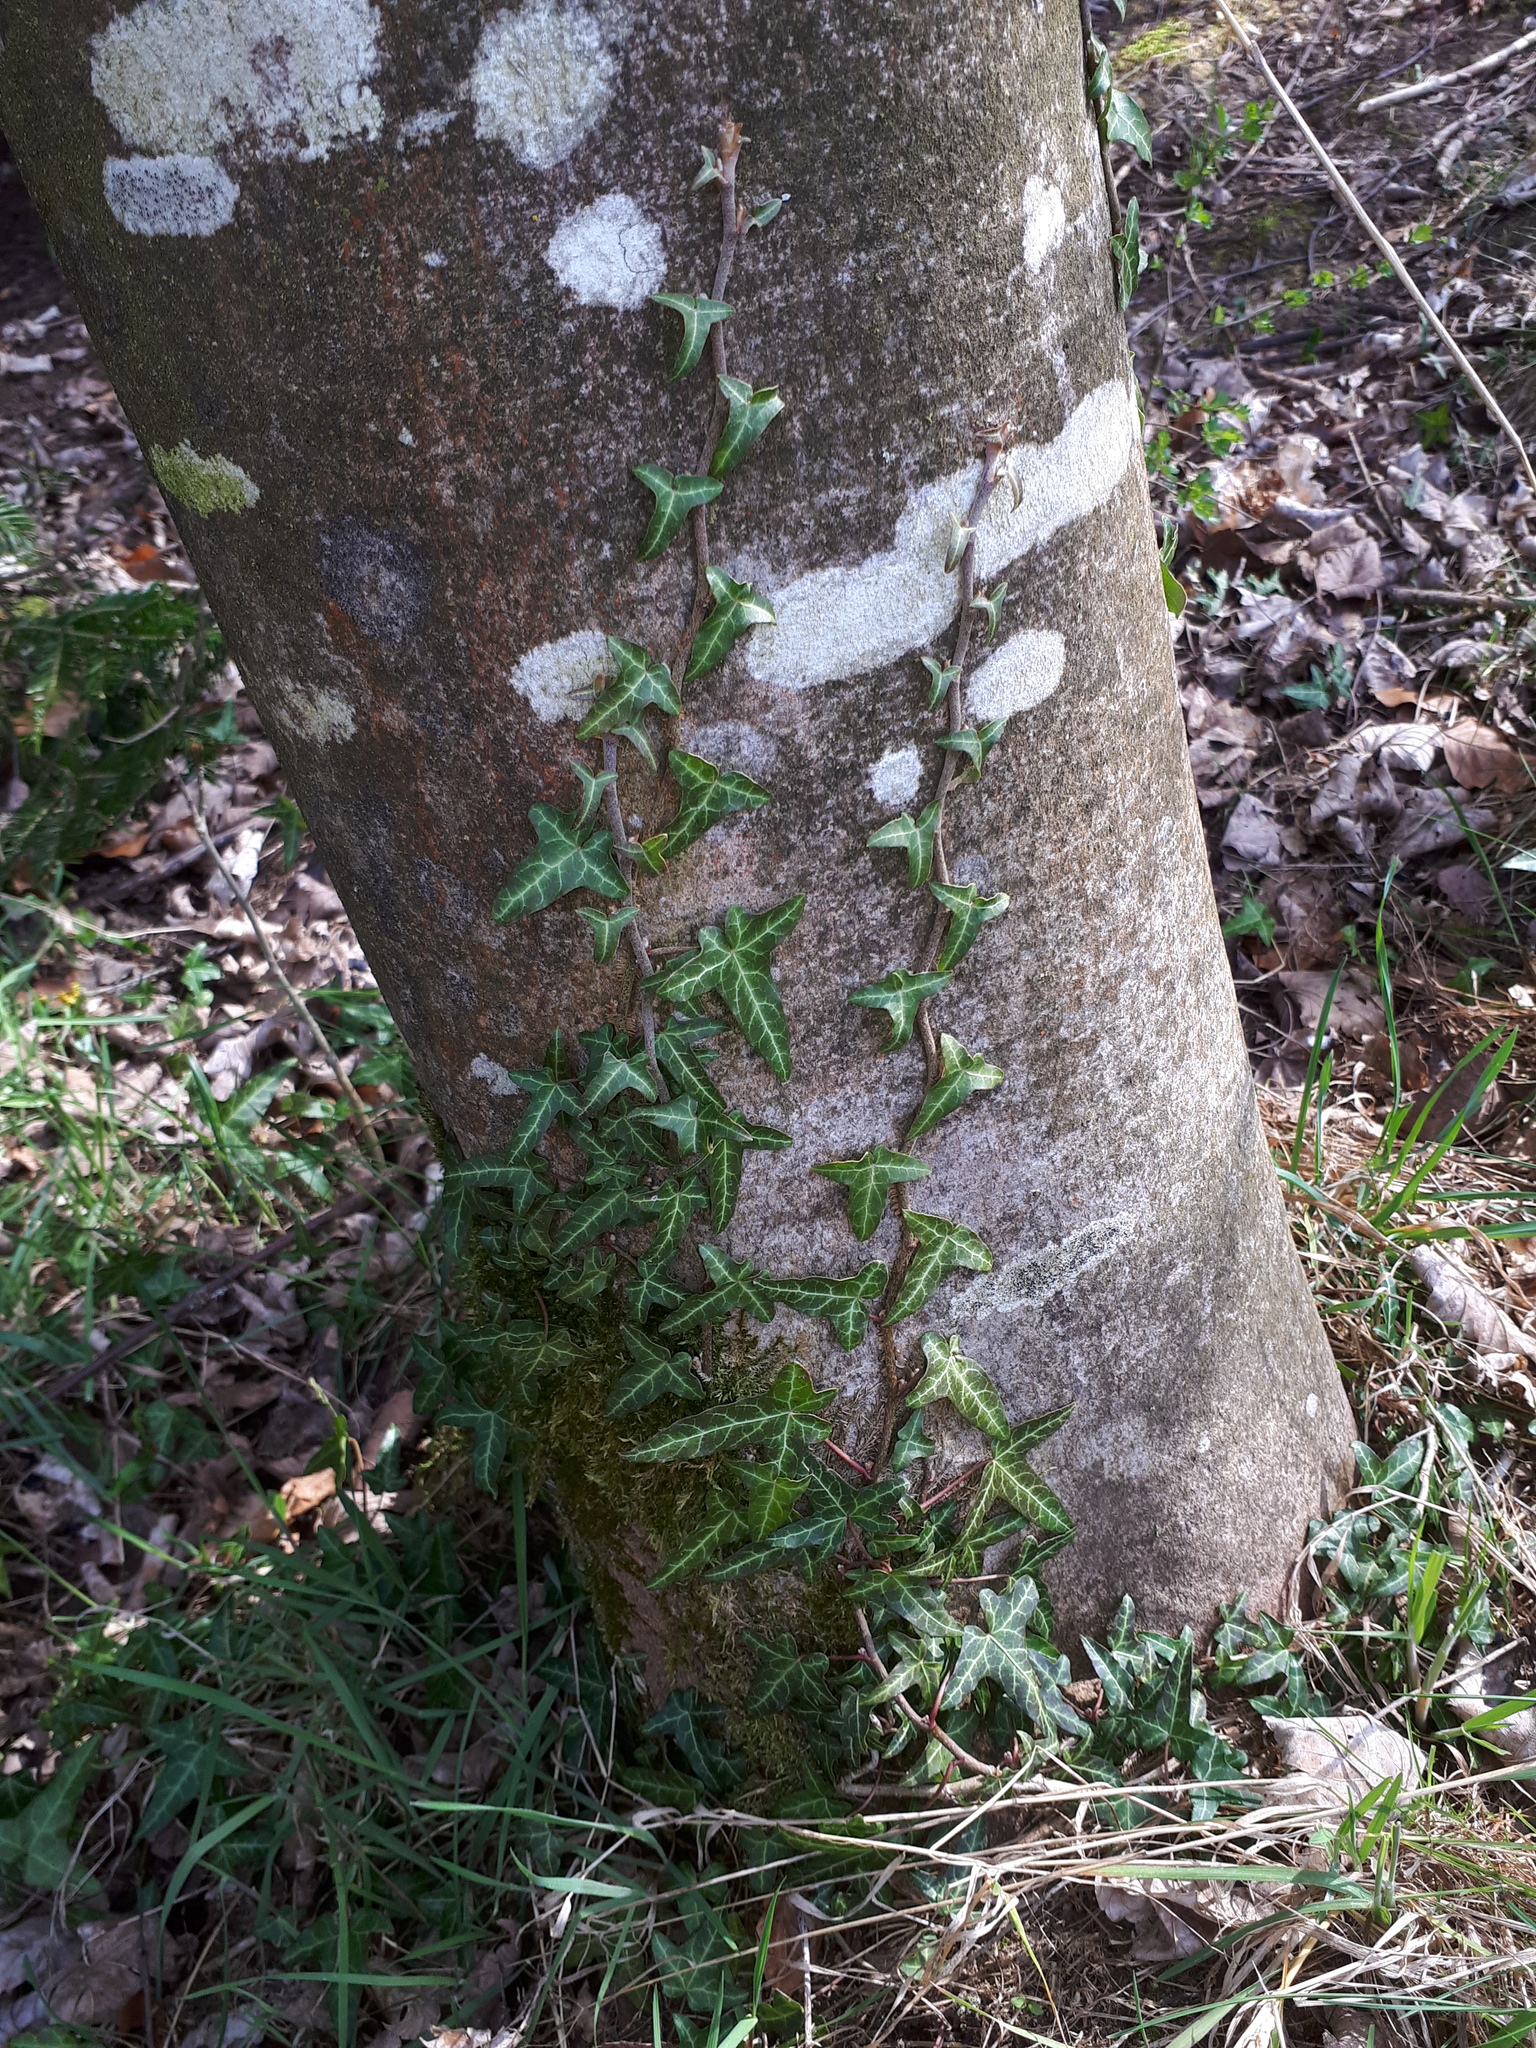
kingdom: Plantae
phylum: Tracheophyta
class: Magnoliopsida
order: Apiales
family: Araliaceae
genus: Hedera
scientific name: Hedera helix
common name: Ivy
